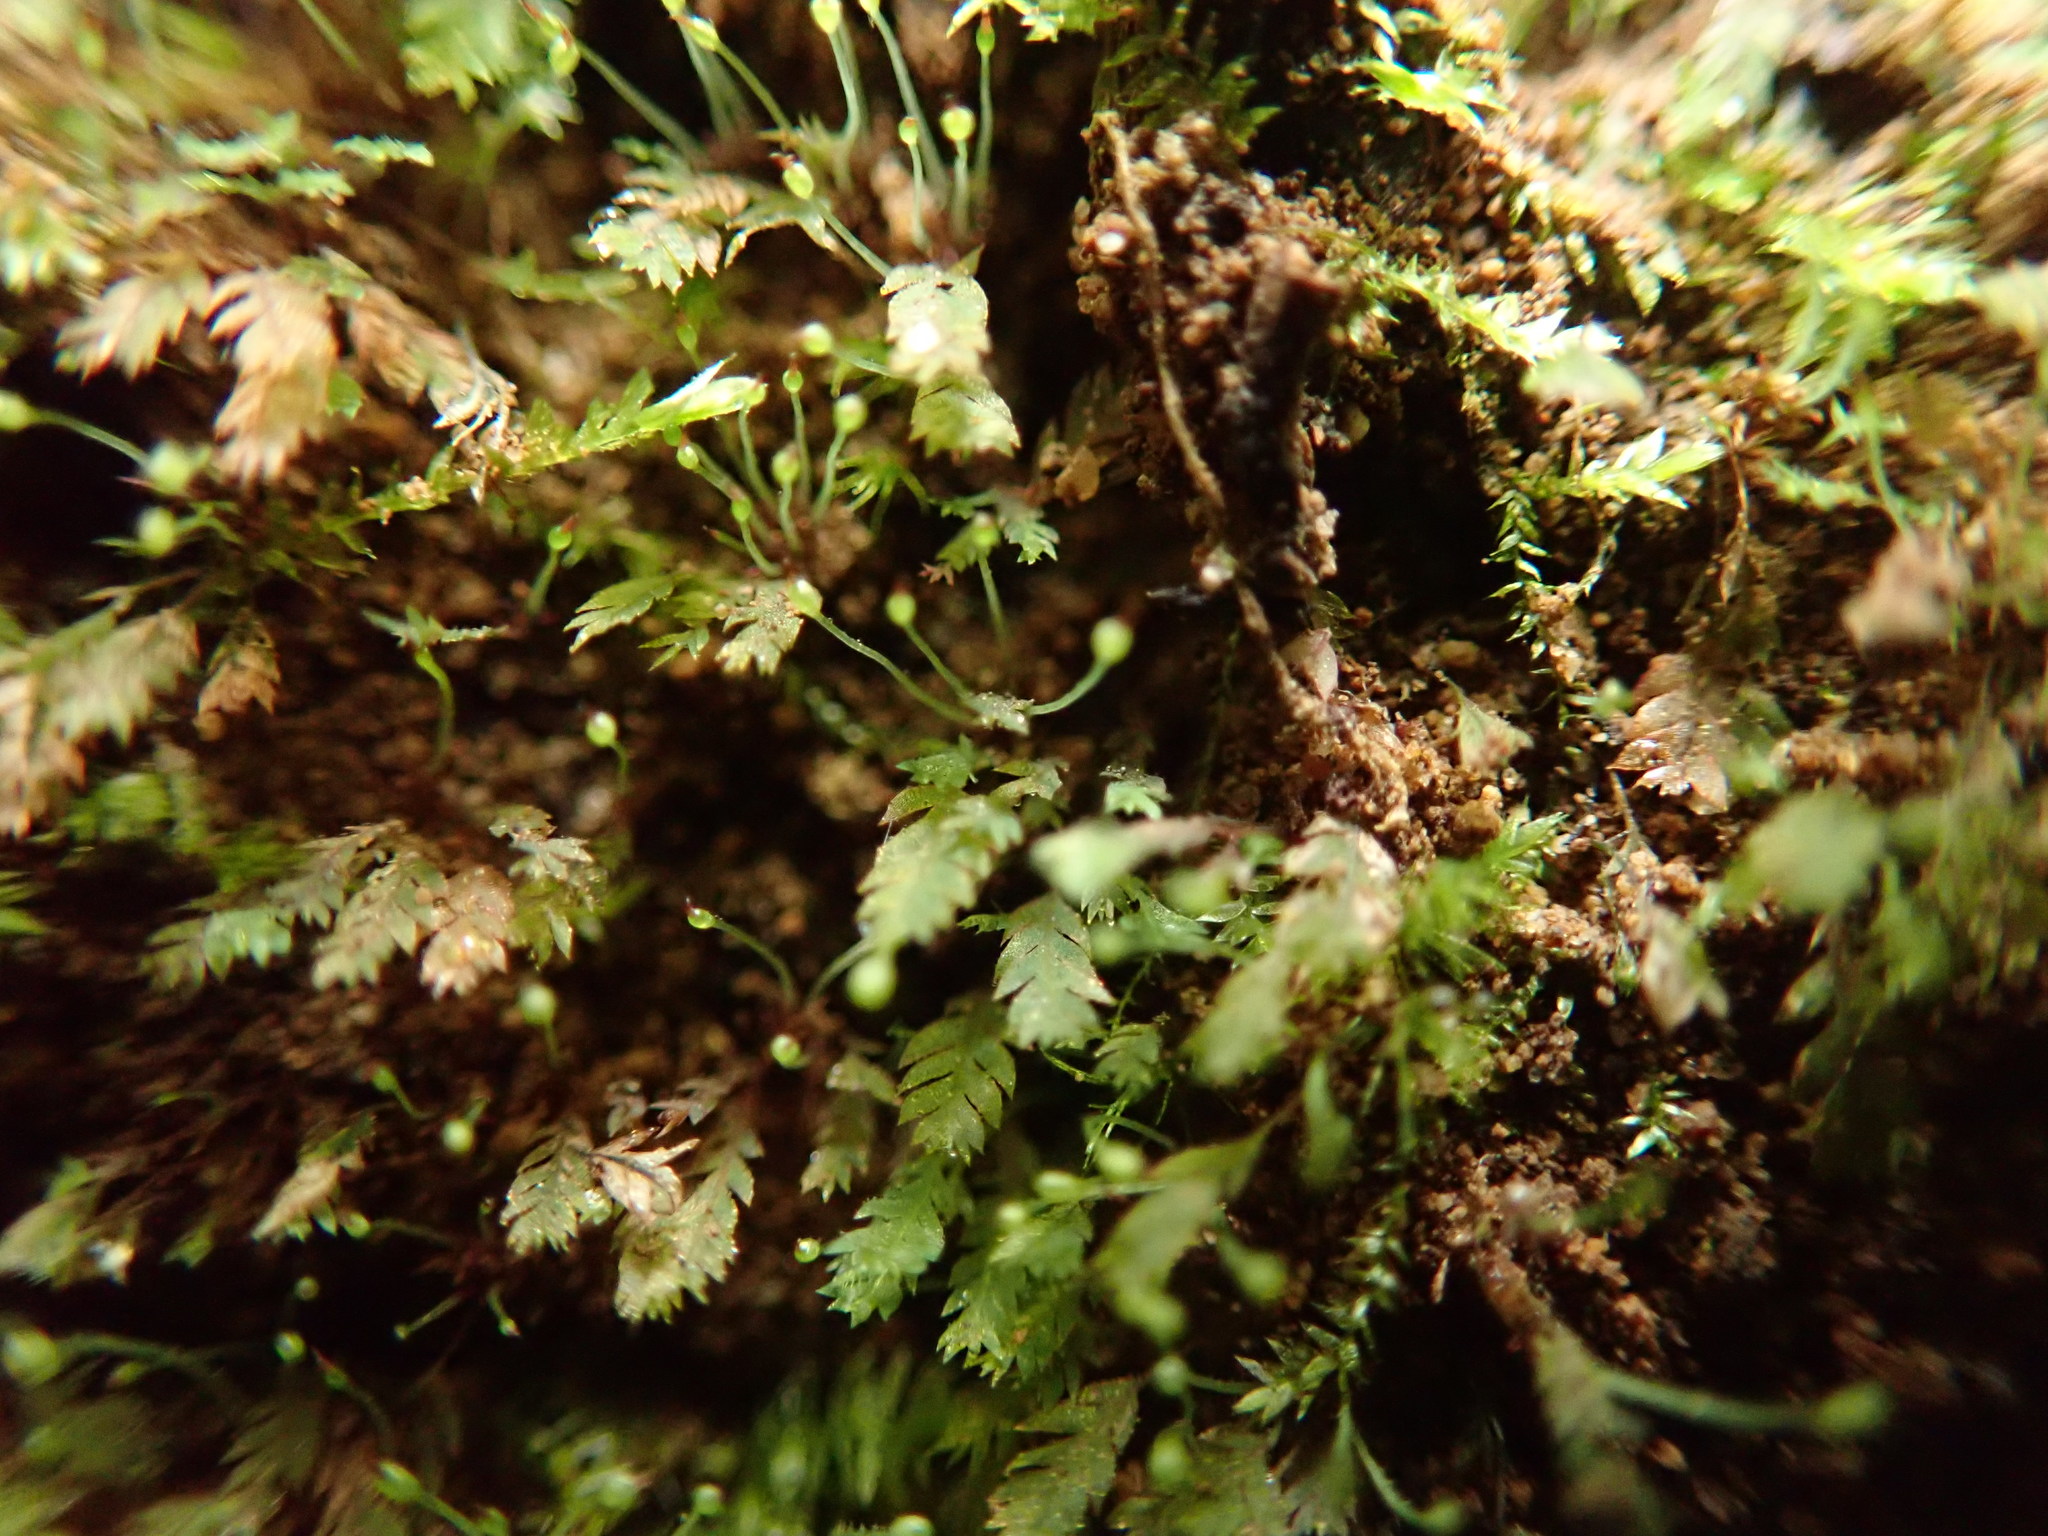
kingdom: Plantae
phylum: Bryophyta
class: Bryopsida
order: Dicranales
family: Schistostegaceae
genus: Schistostega
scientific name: Schistostega pennata
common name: Luminous moss
